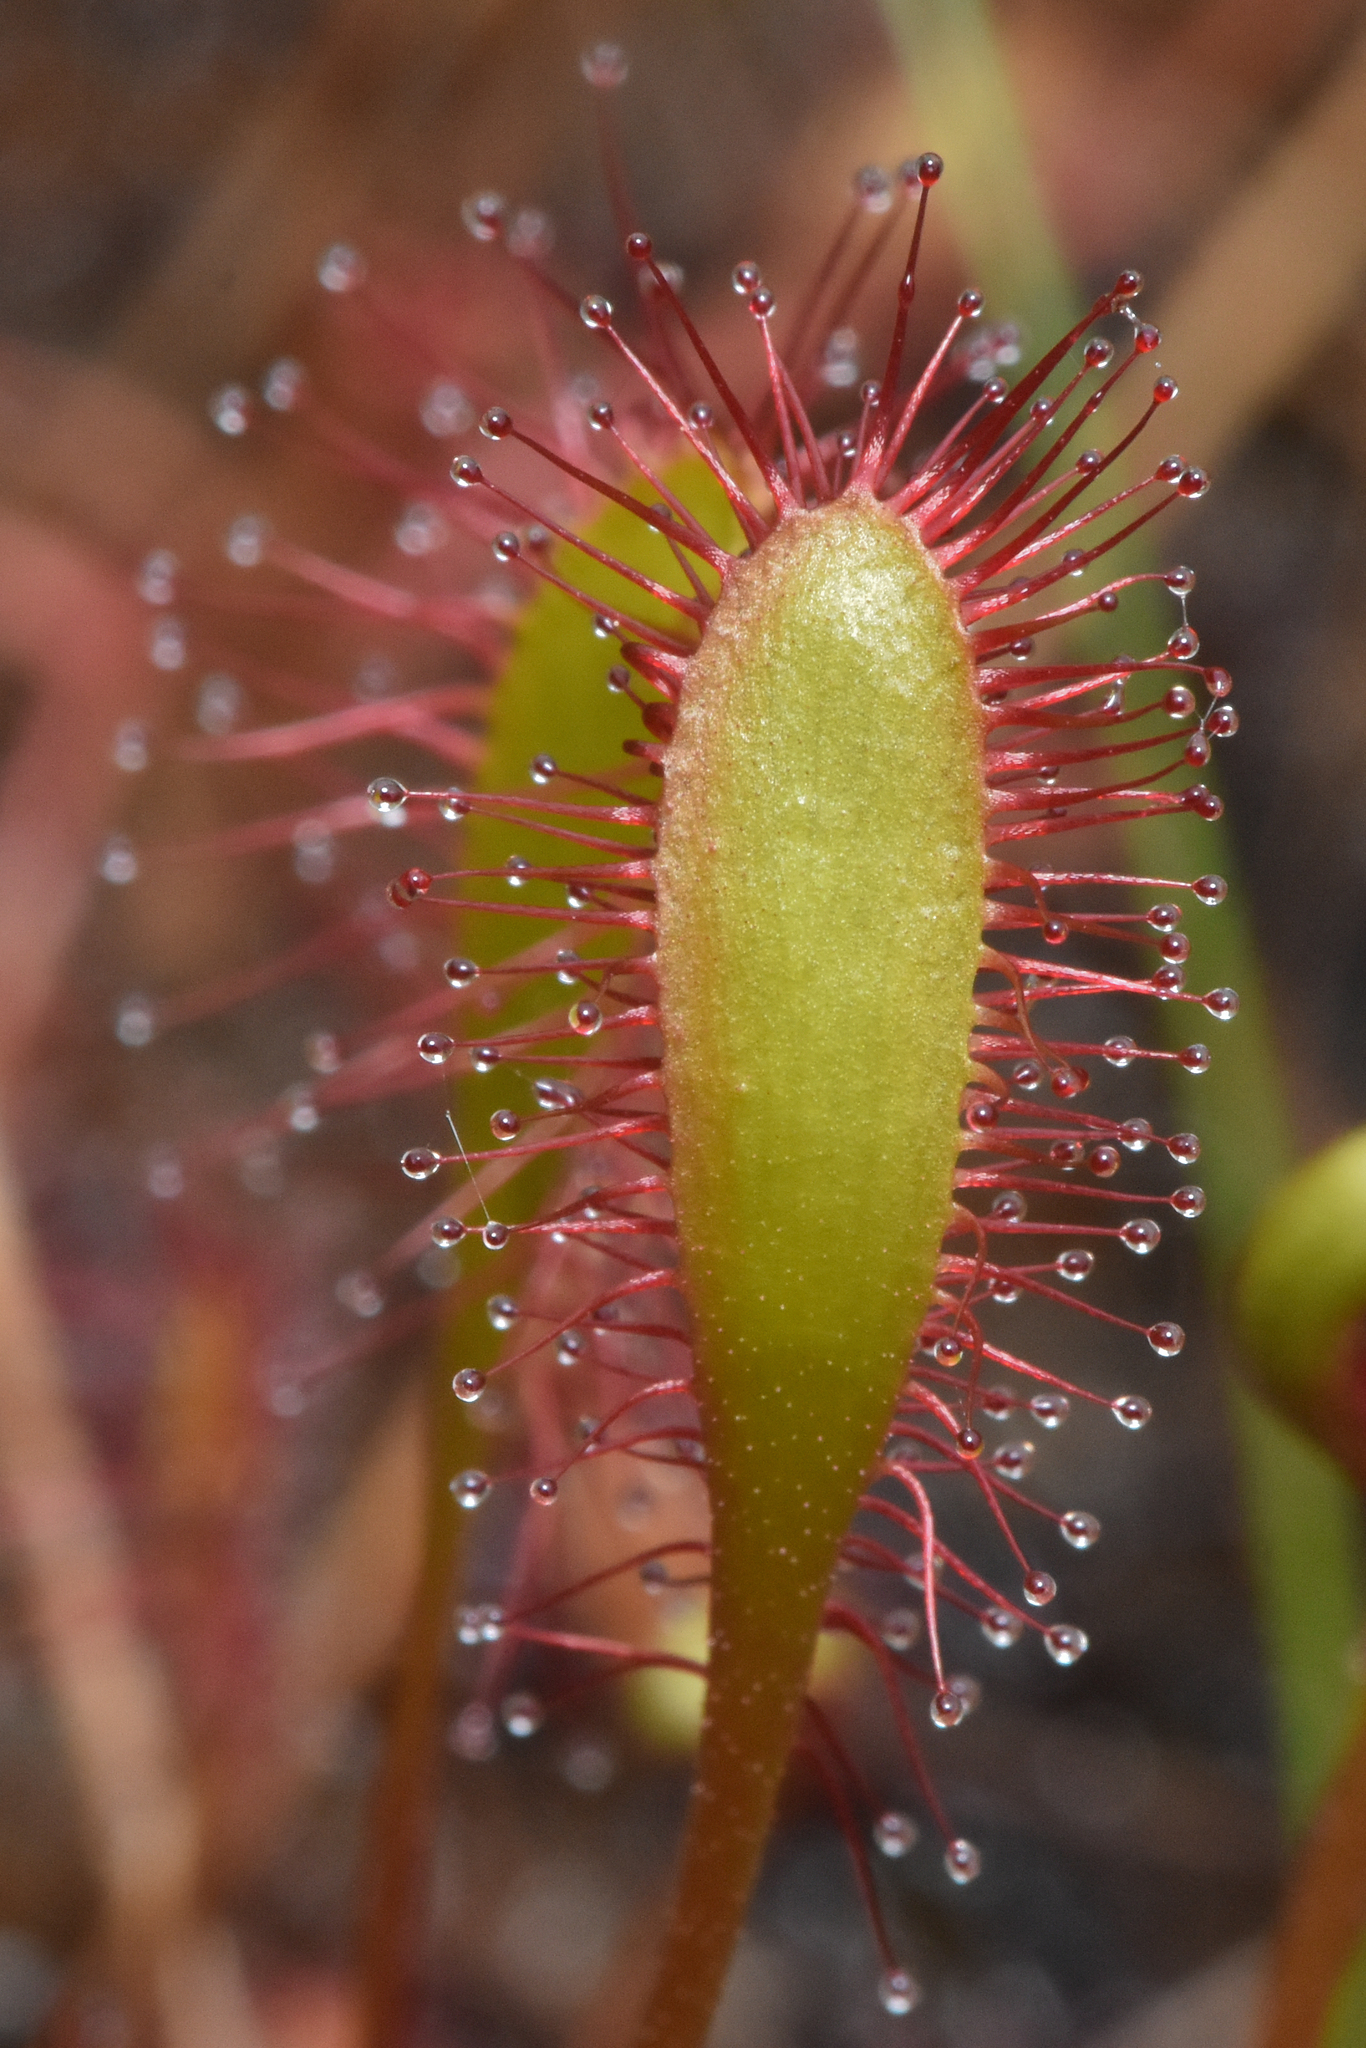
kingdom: Plantae
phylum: Tracheophyta
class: Magnoliopsida
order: Caryophyllales
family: Droseraceae
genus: Drosera
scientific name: Drosera anglica
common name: Great sundew
